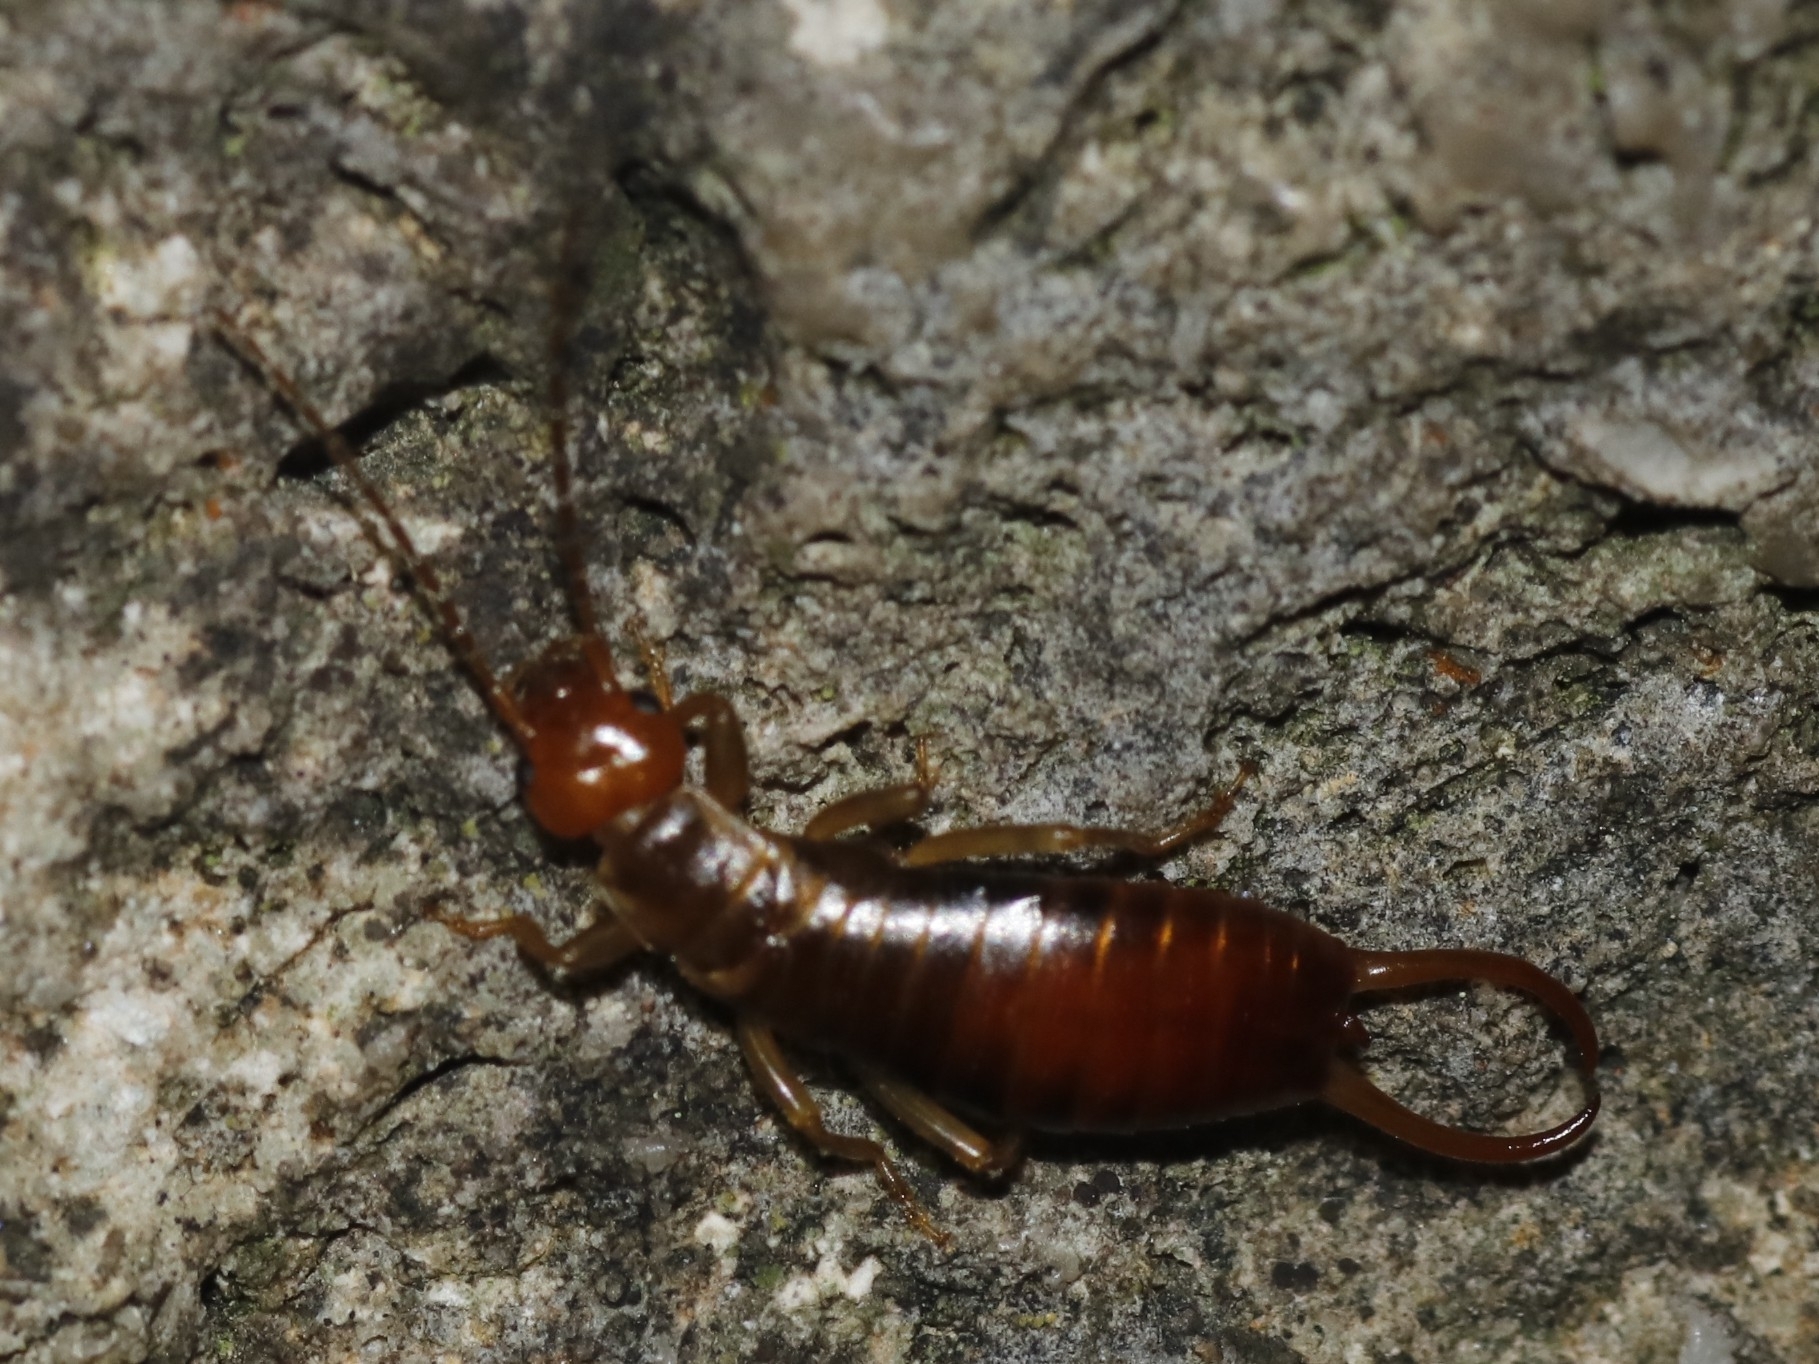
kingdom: Animalia
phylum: Arthropoda
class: Insecta
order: Dermaptera
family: Forficulidae
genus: Chelidurella
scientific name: Chelidurella acanthopygia
